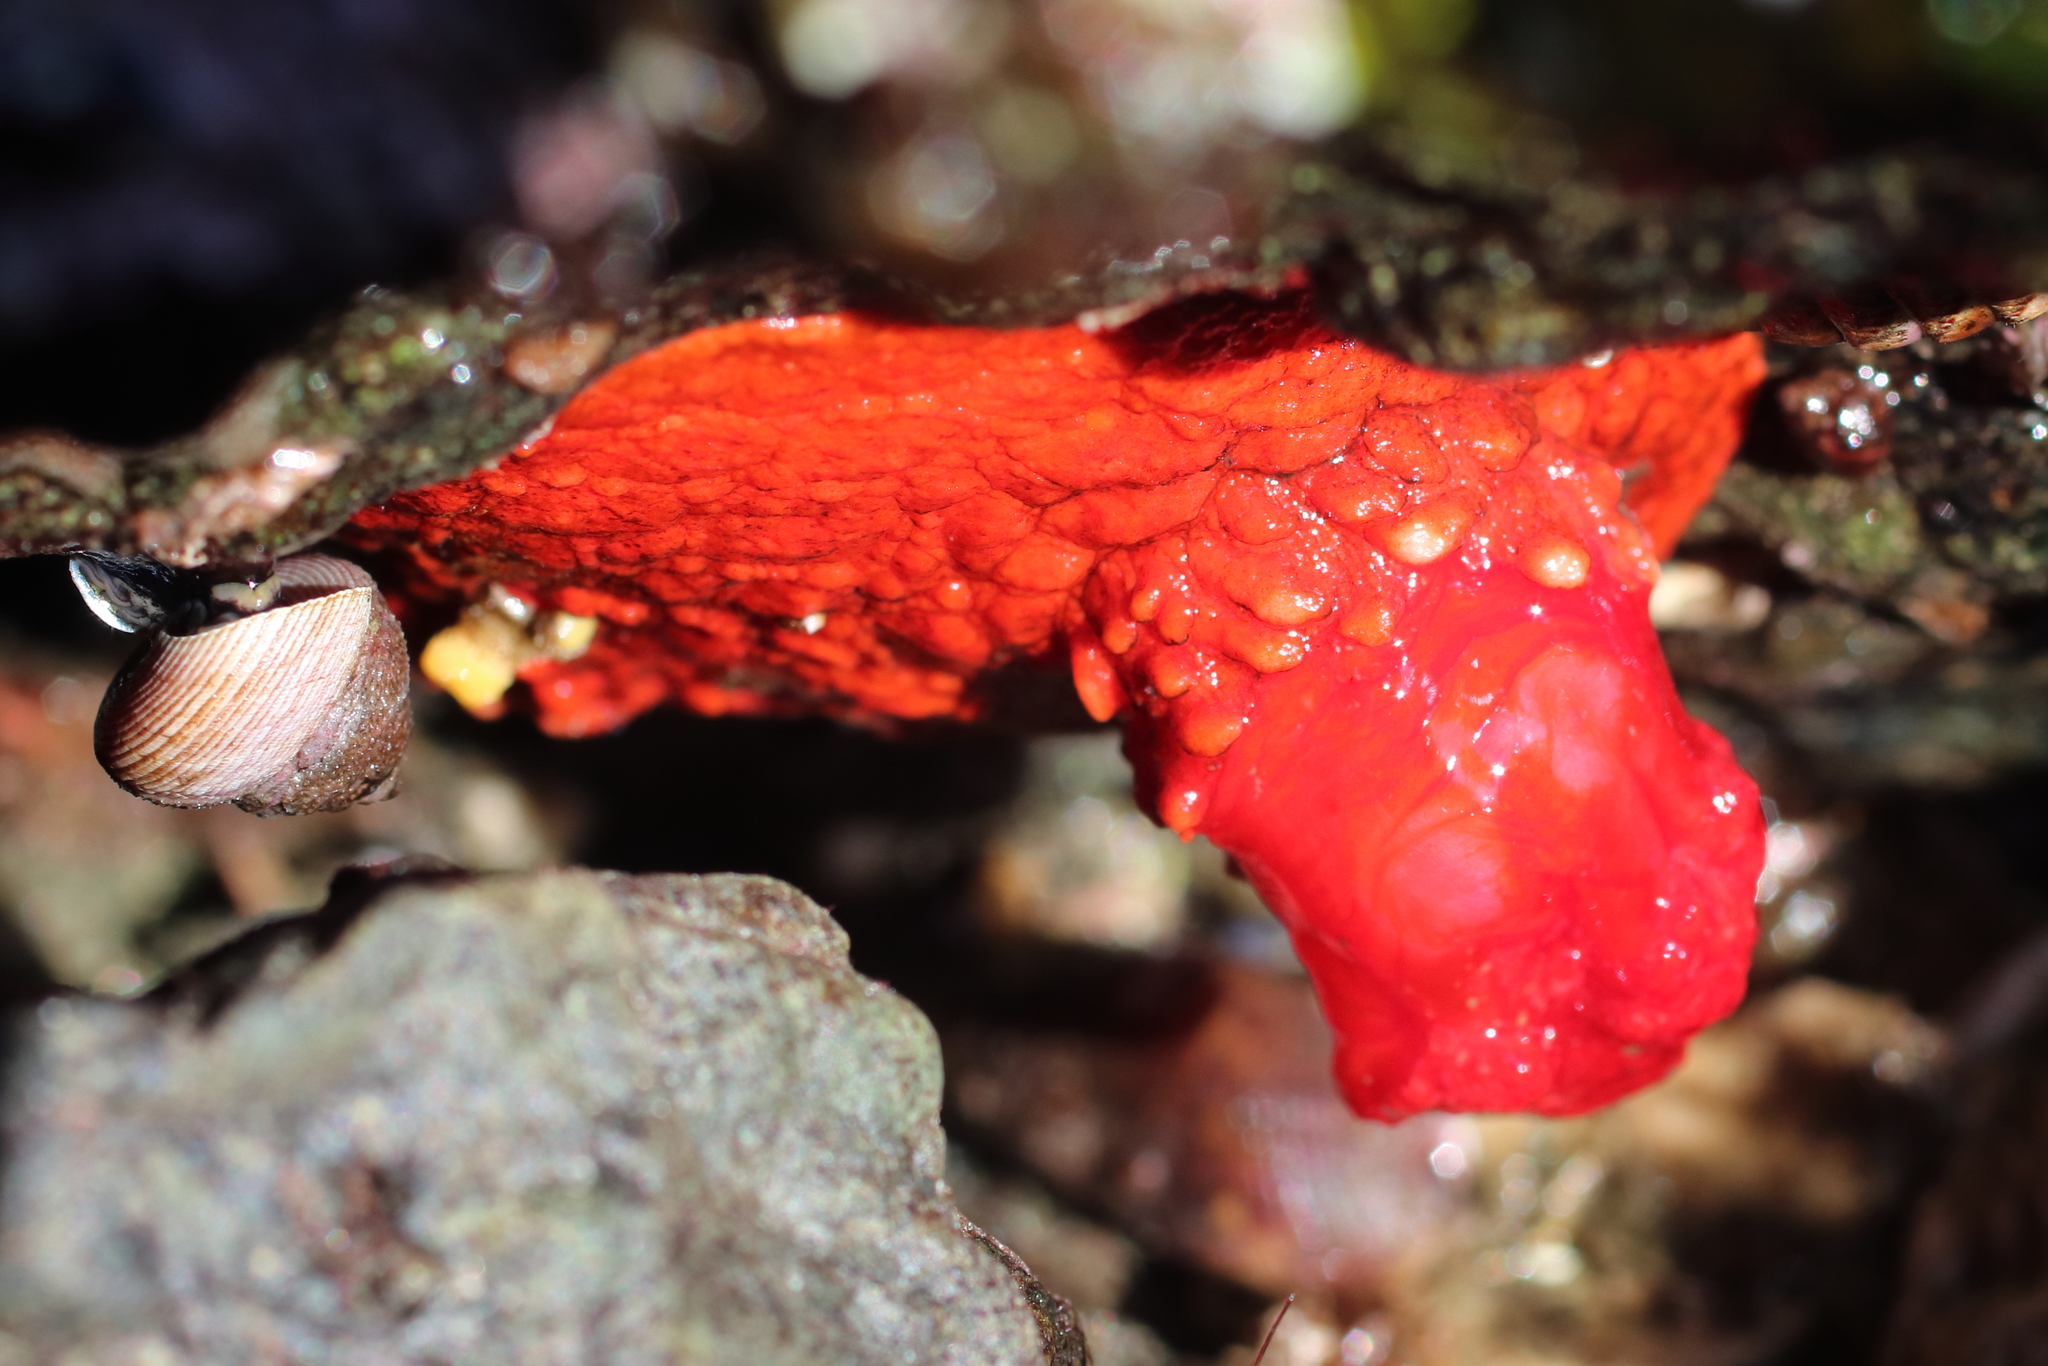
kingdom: Animalia
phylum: Echinodermata
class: Holothuroidea
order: Dendrochirotida
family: Psolidae
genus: Psolus
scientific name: Psolus chitonoides
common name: Creeping pedal sea cucumber
